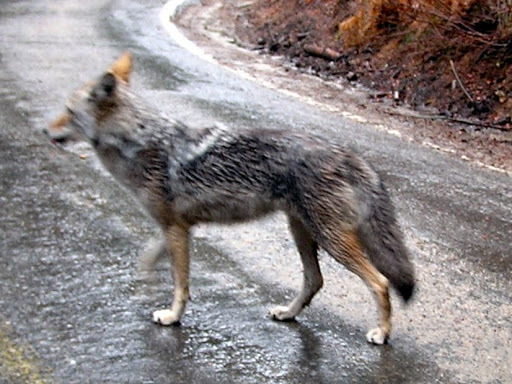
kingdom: Animalia
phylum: Chordata
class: Mammalia
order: Carnivora
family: Canidae
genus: Canis
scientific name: Canis latrans
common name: Coyote
